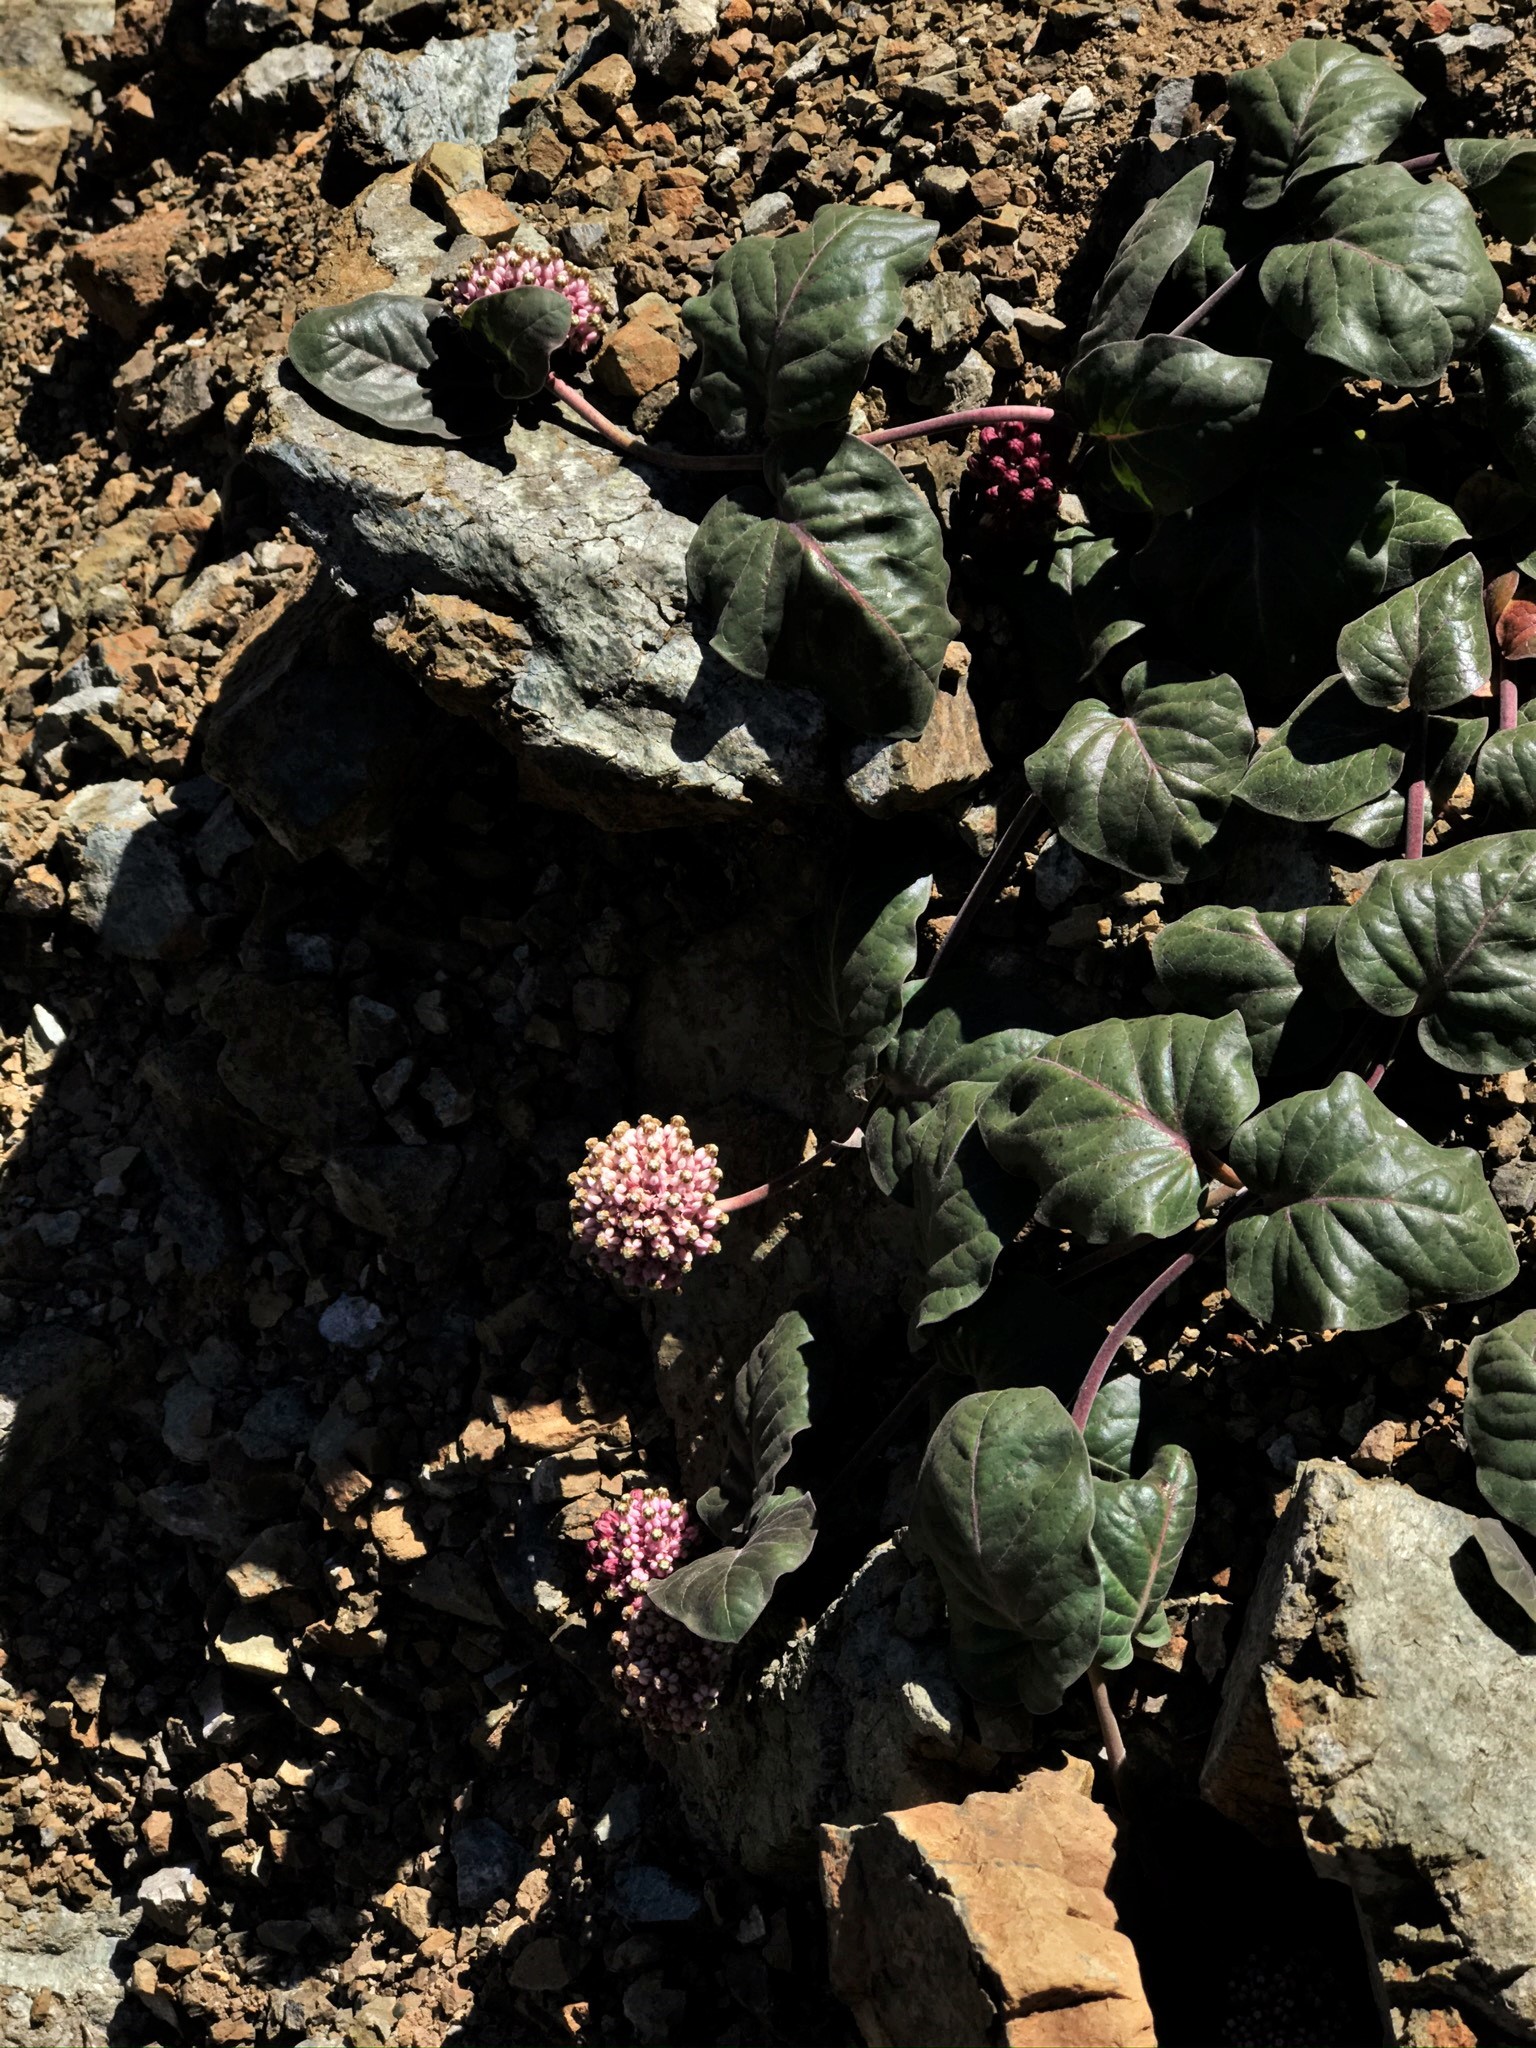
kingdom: Plantae
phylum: Tracheophyta
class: Magnoliopsida
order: Gentianales
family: Apocynaceae
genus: Asclepias
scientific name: Asclepias solanoana
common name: Serpentine milkweed
